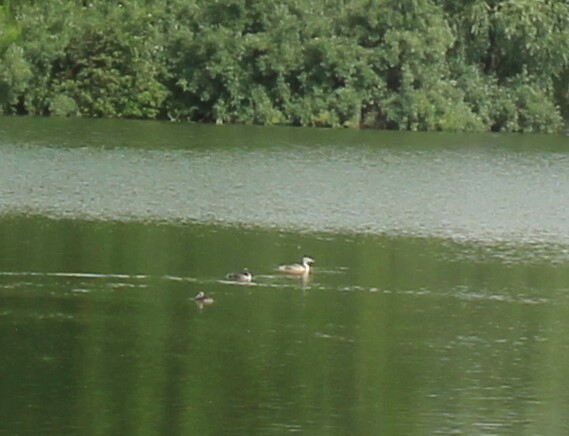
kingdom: Animalia
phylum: Chordata
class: Aves
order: Podicipediformes
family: Podicipedidae
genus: Podiceps
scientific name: Podiceps cristatus
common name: Great crested grebe
